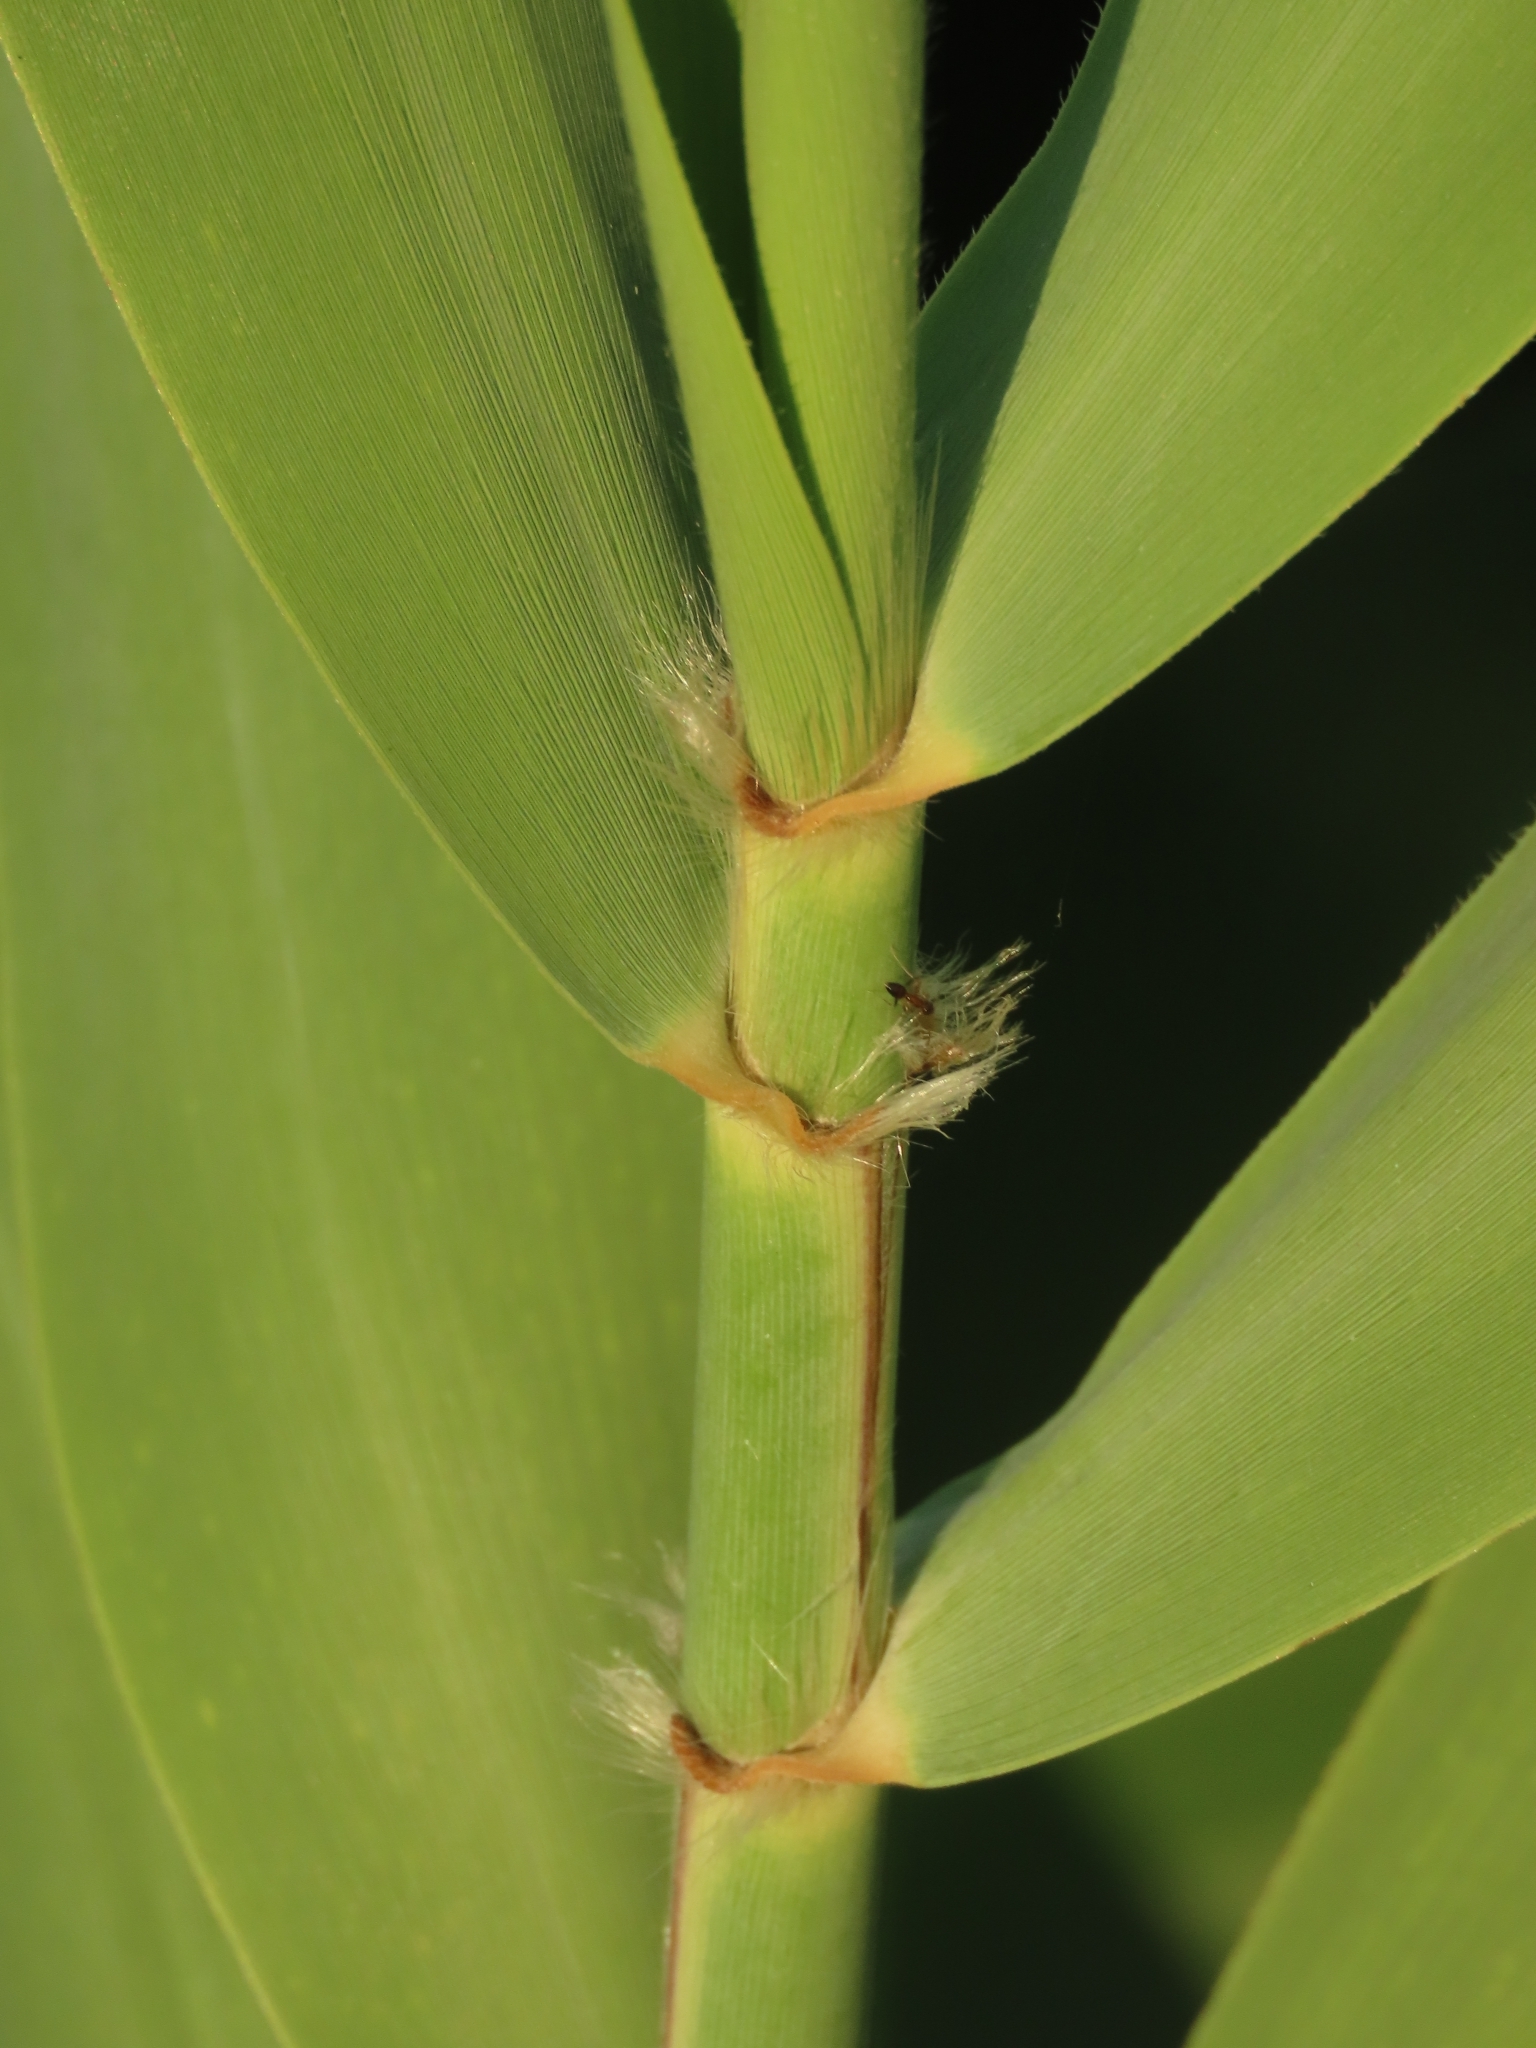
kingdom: Plantae
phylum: Tracheophyta
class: Liliopsida
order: Poales
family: Poaceae
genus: Phragmites
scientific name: Phragmites australis
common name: Common reed
